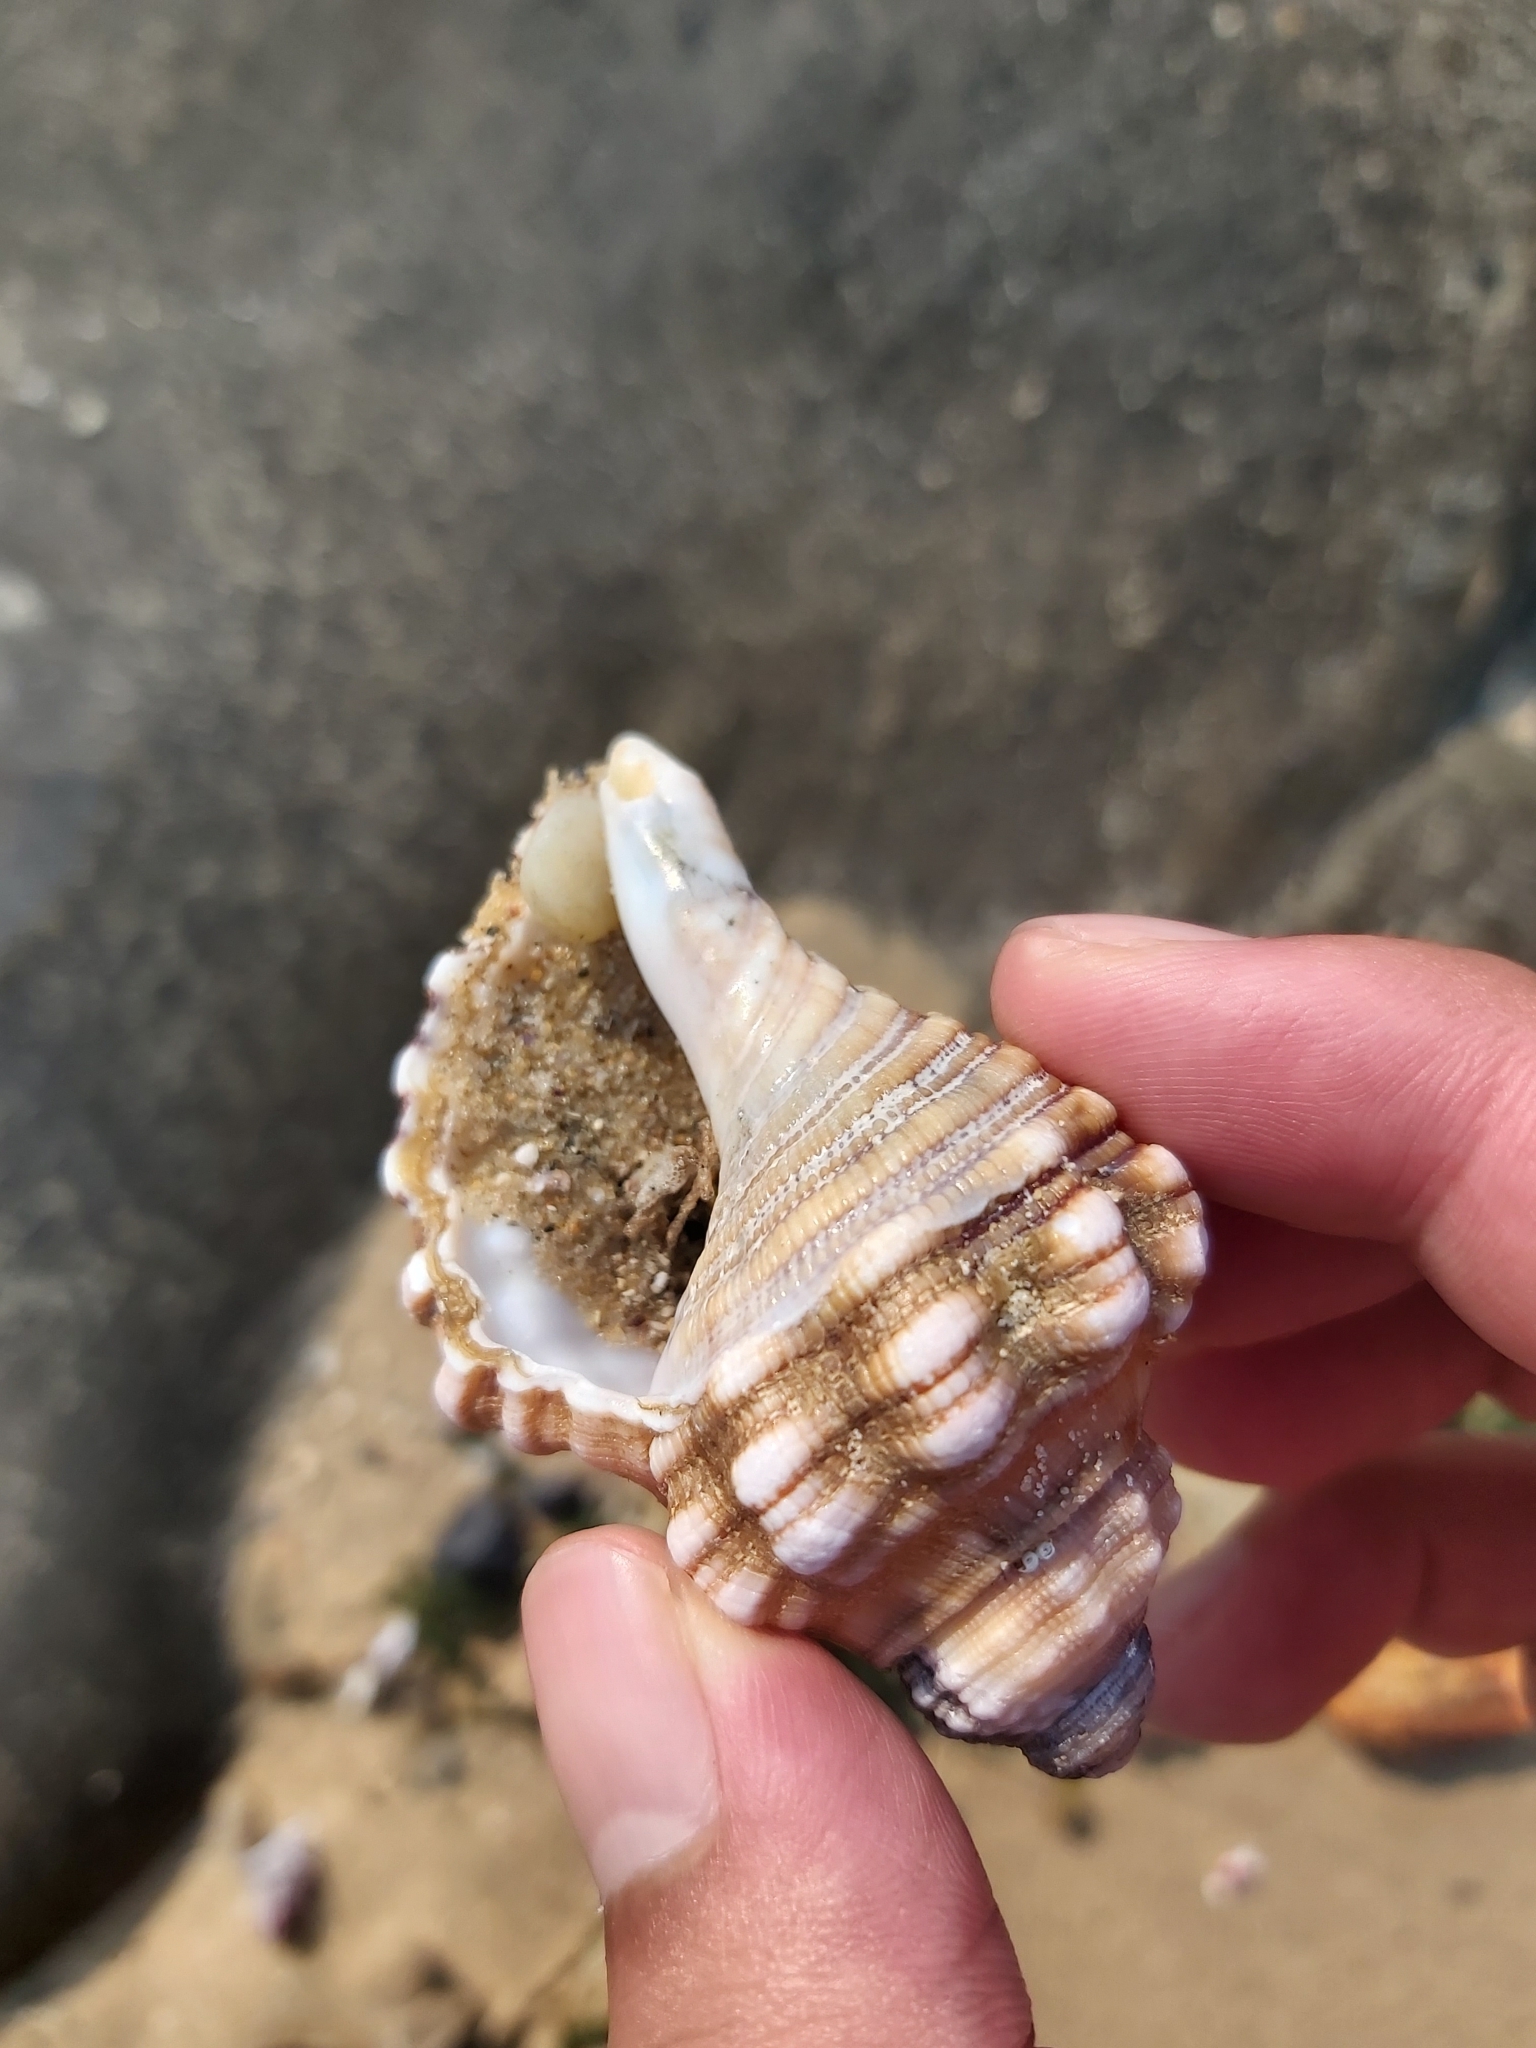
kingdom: Animalia
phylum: Mollusca
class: Gastropoda
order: Littorinimorpha
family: Cymatiidae
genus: Cabestana
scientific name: Cabestana spengleri
